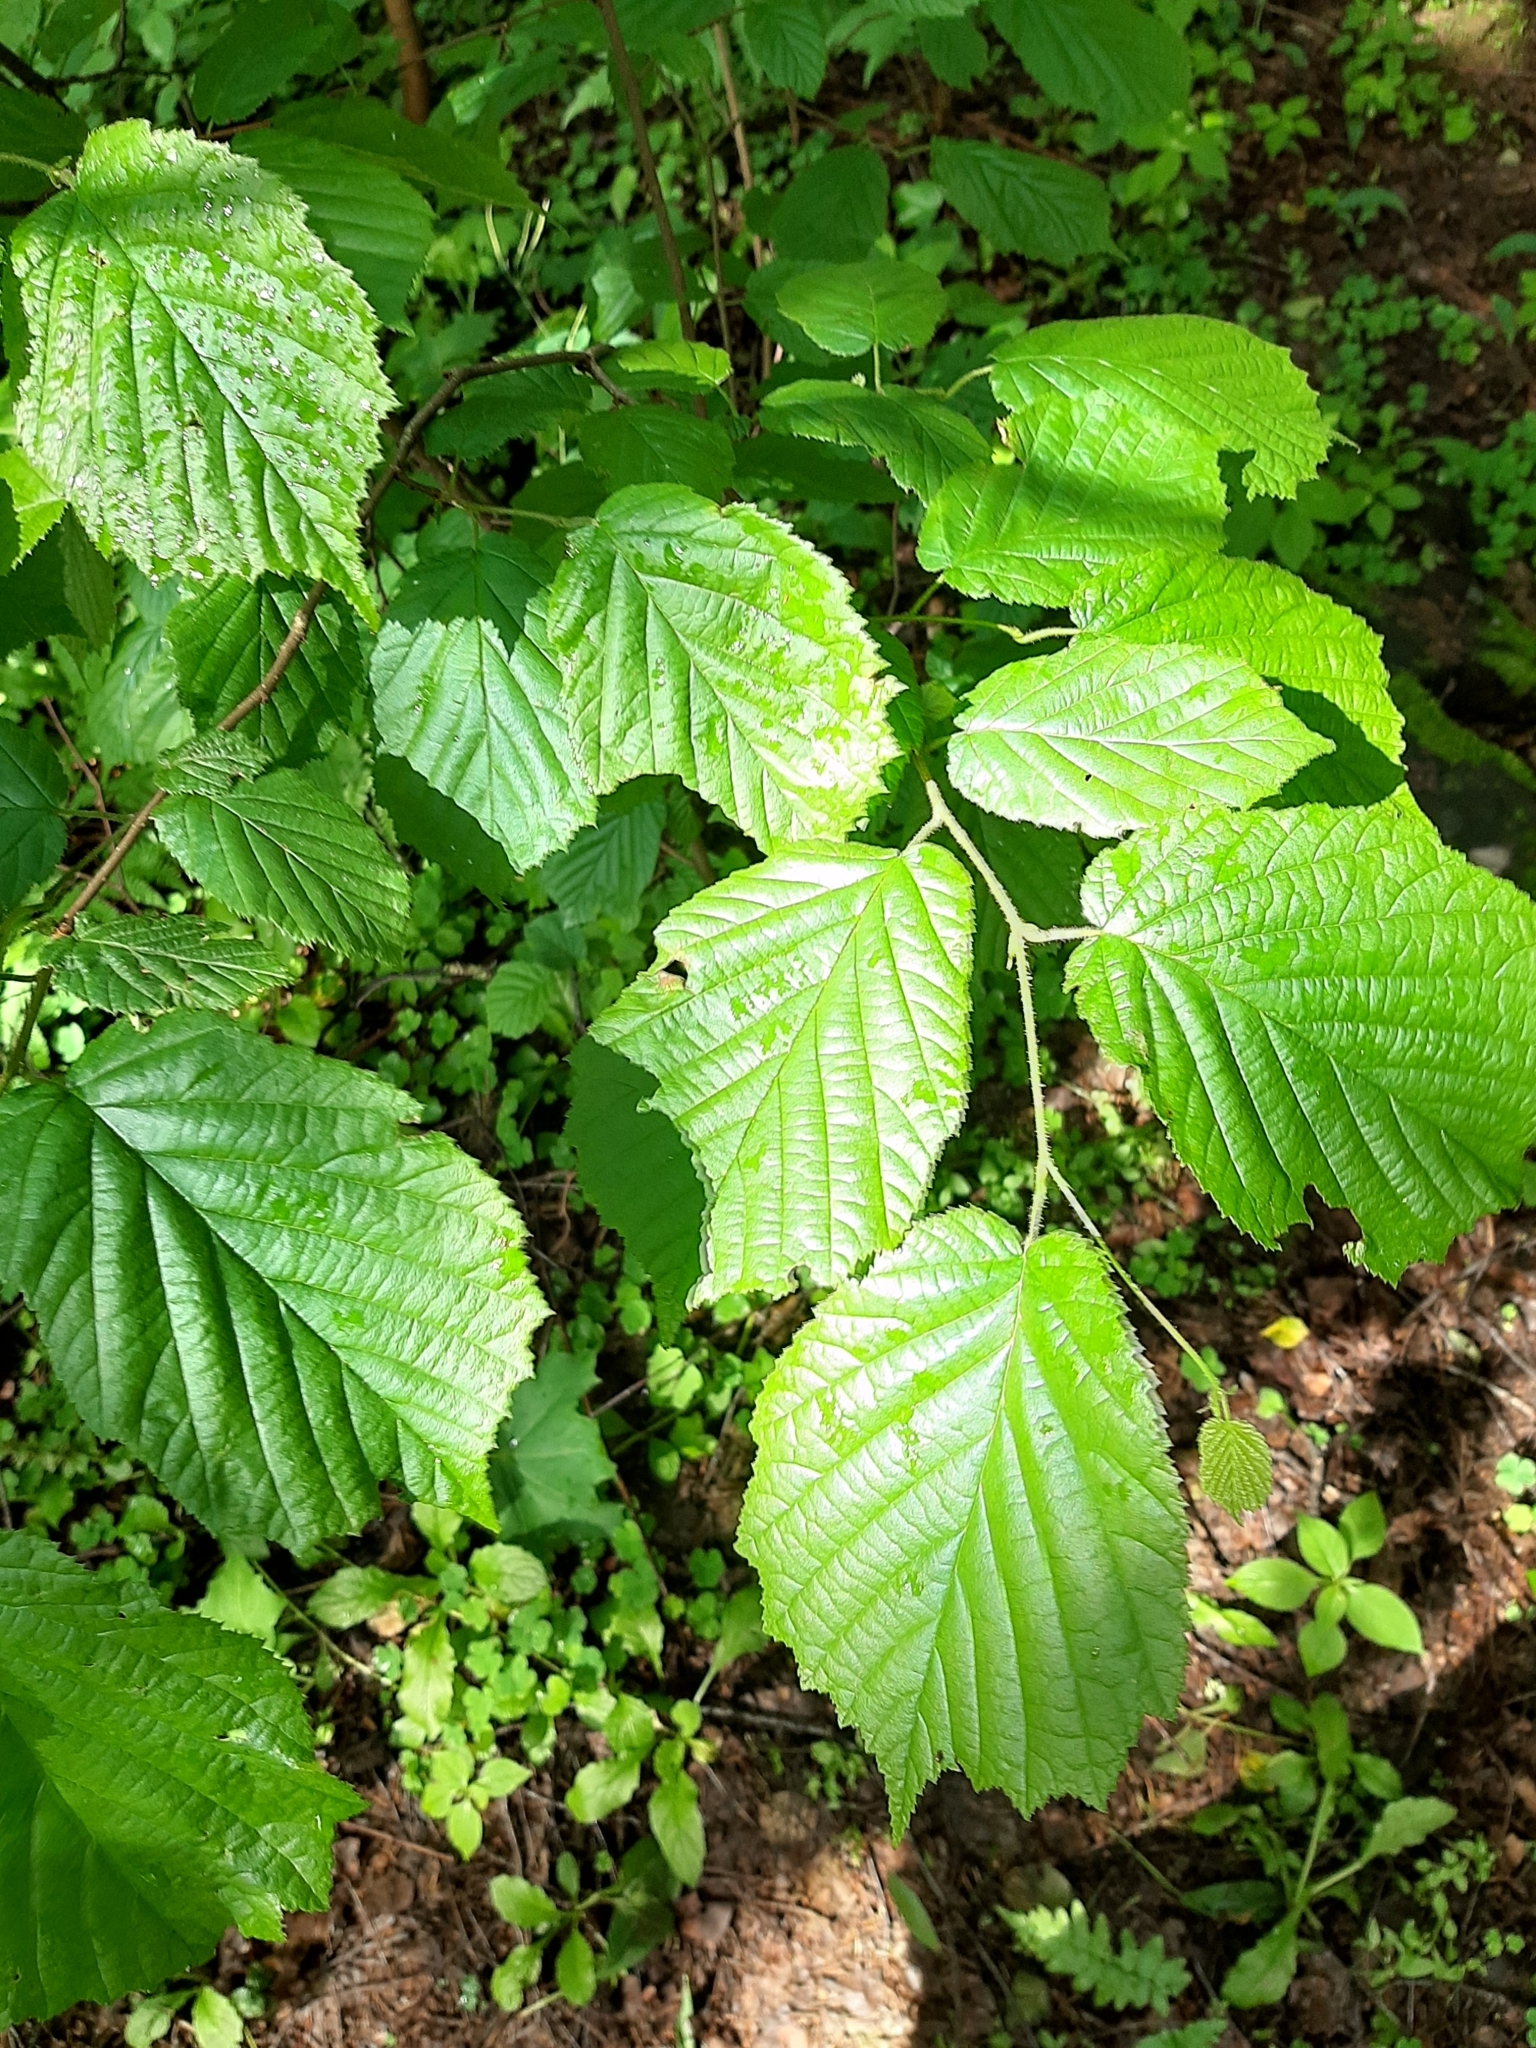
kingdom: Plantae
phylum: Tracheophyta
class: Magnoliopsida
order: Fagales
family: Betulaceae
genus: Corylus
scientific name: Corylus avellana
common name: European hazel
